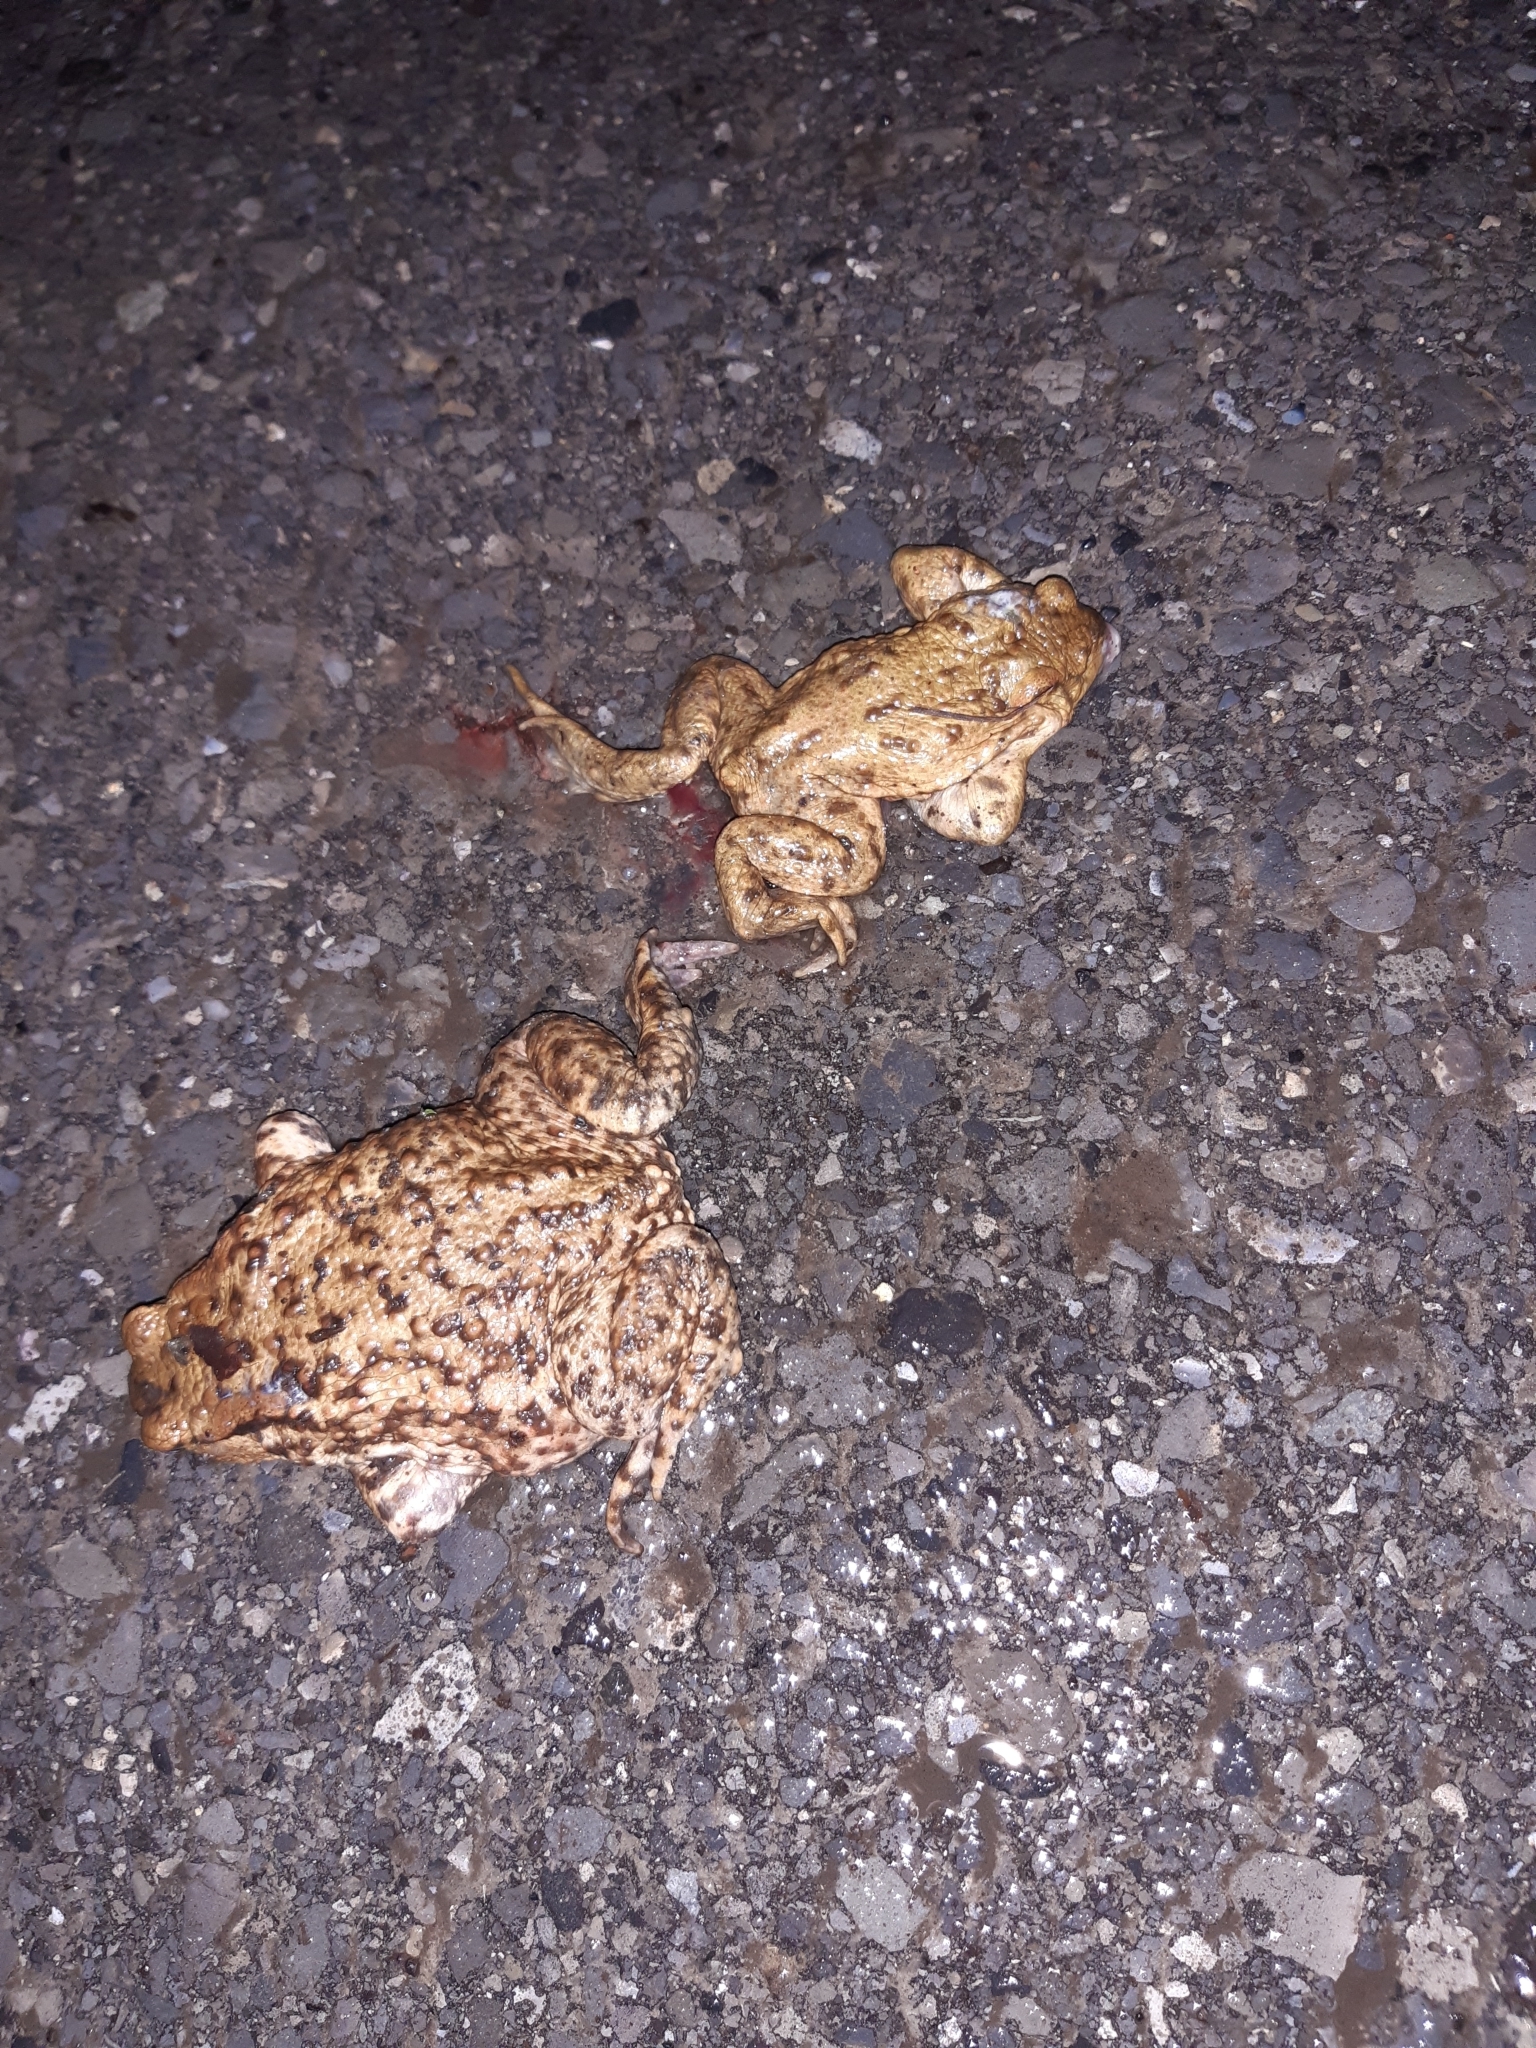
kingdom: Animalia
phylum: Chordata
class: Amphibia
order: Anura
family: Bufonidae
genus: Bufo
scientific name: Bufo bufo
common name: Common toad
